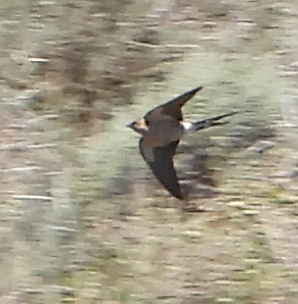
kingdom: Animalia
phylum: Chordata
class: Aves
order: Passeriformes
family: Hirundinidae
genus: Cecropis
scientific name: Cecropis cucullata
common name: Greater striped-swallow
